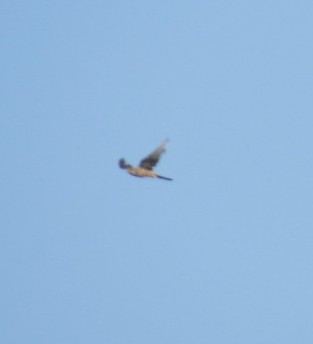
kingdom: Animalia
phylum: Chordata
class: Aves
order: Falconiformes
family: Falconidae
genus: Falco
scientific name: Falco tinnunculus
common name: Common kestrel
